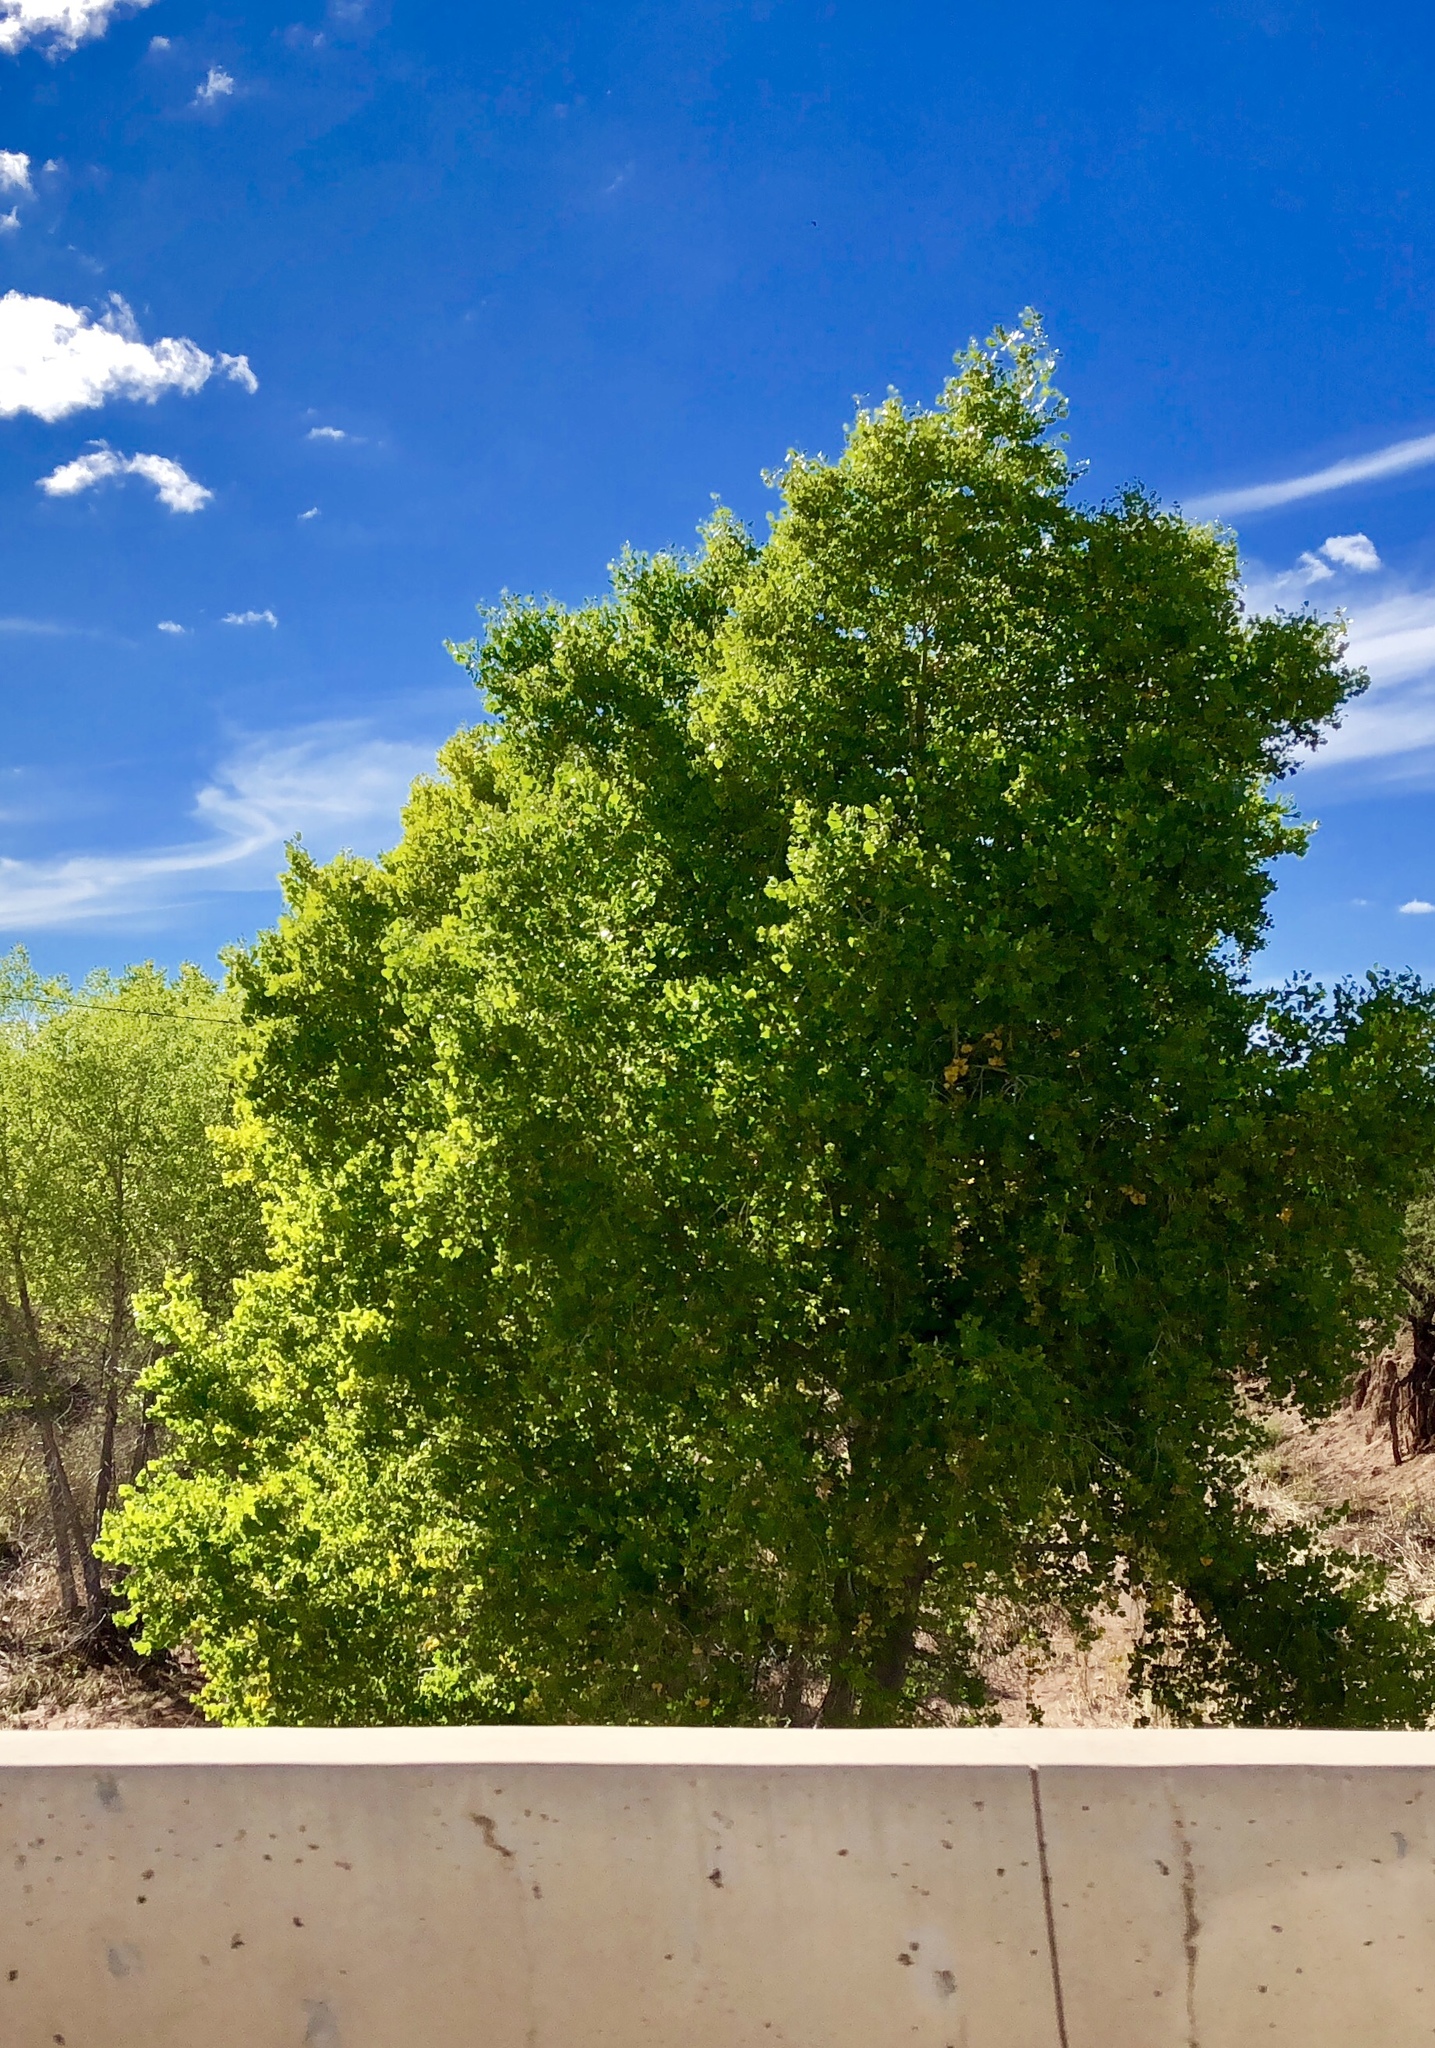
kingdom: Plantae
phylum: Tracheophyta
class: Magnoliopsida
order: Malpighiales
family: Salicaceae
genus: Populus
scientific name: Populus fremontii
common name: Fremont's cottonwood
